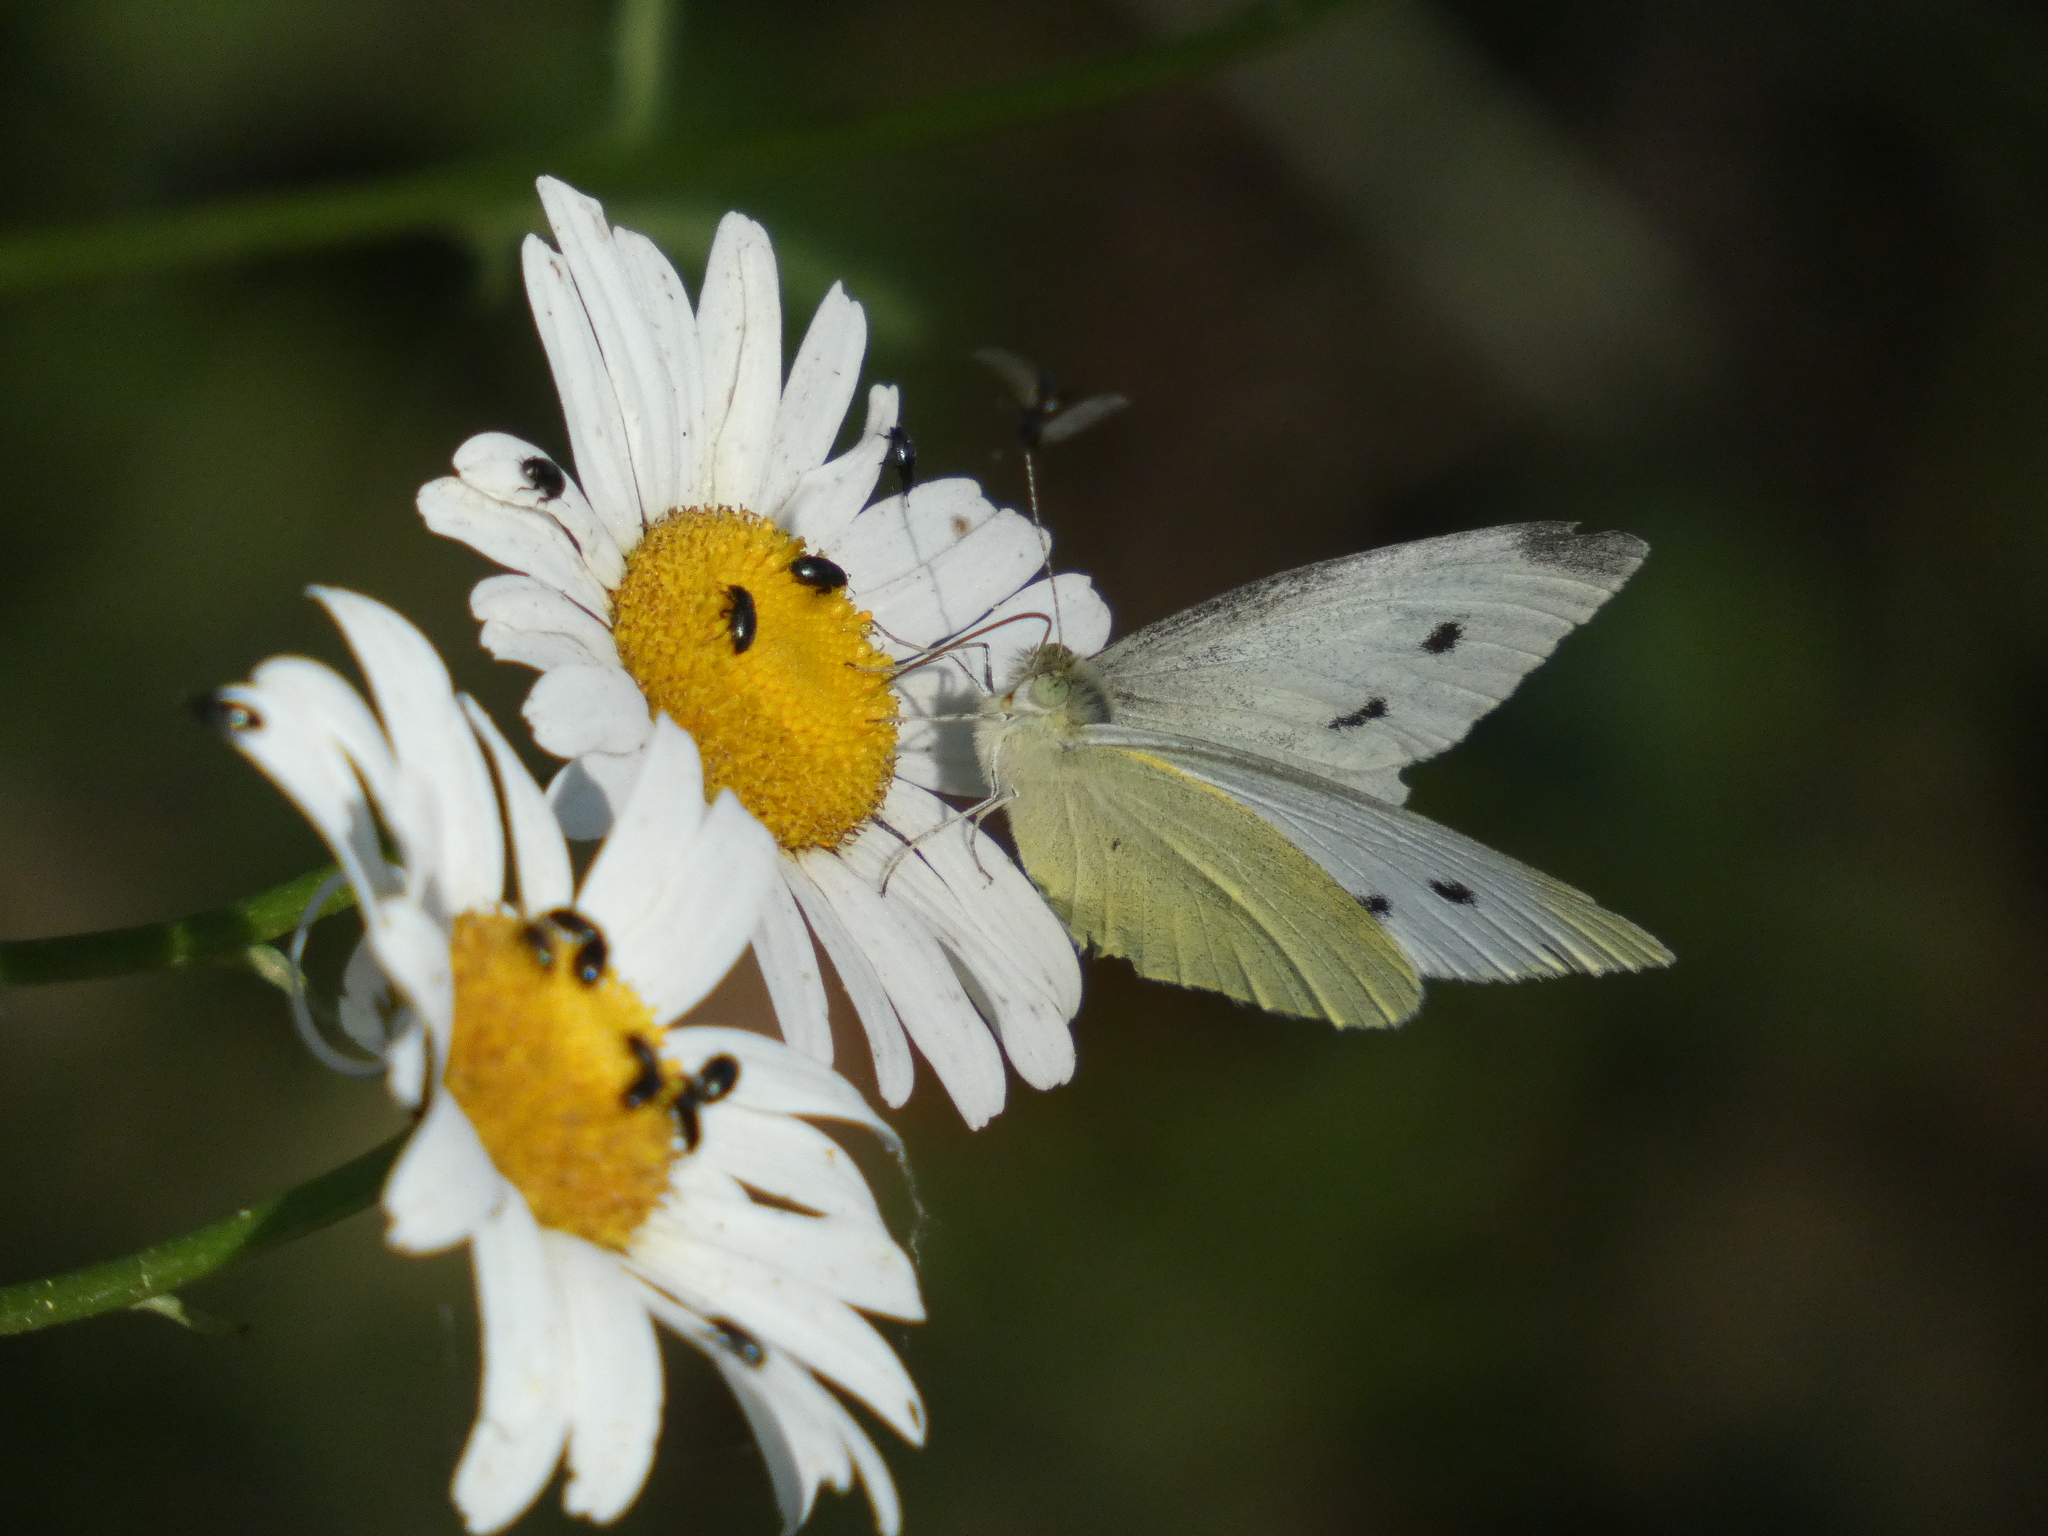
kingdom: Animalia
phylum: Arthropoda
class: Insecta
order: Lepidoptera
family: Pieridae
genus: Pieris
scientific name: Pieris rapae
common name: Small white
